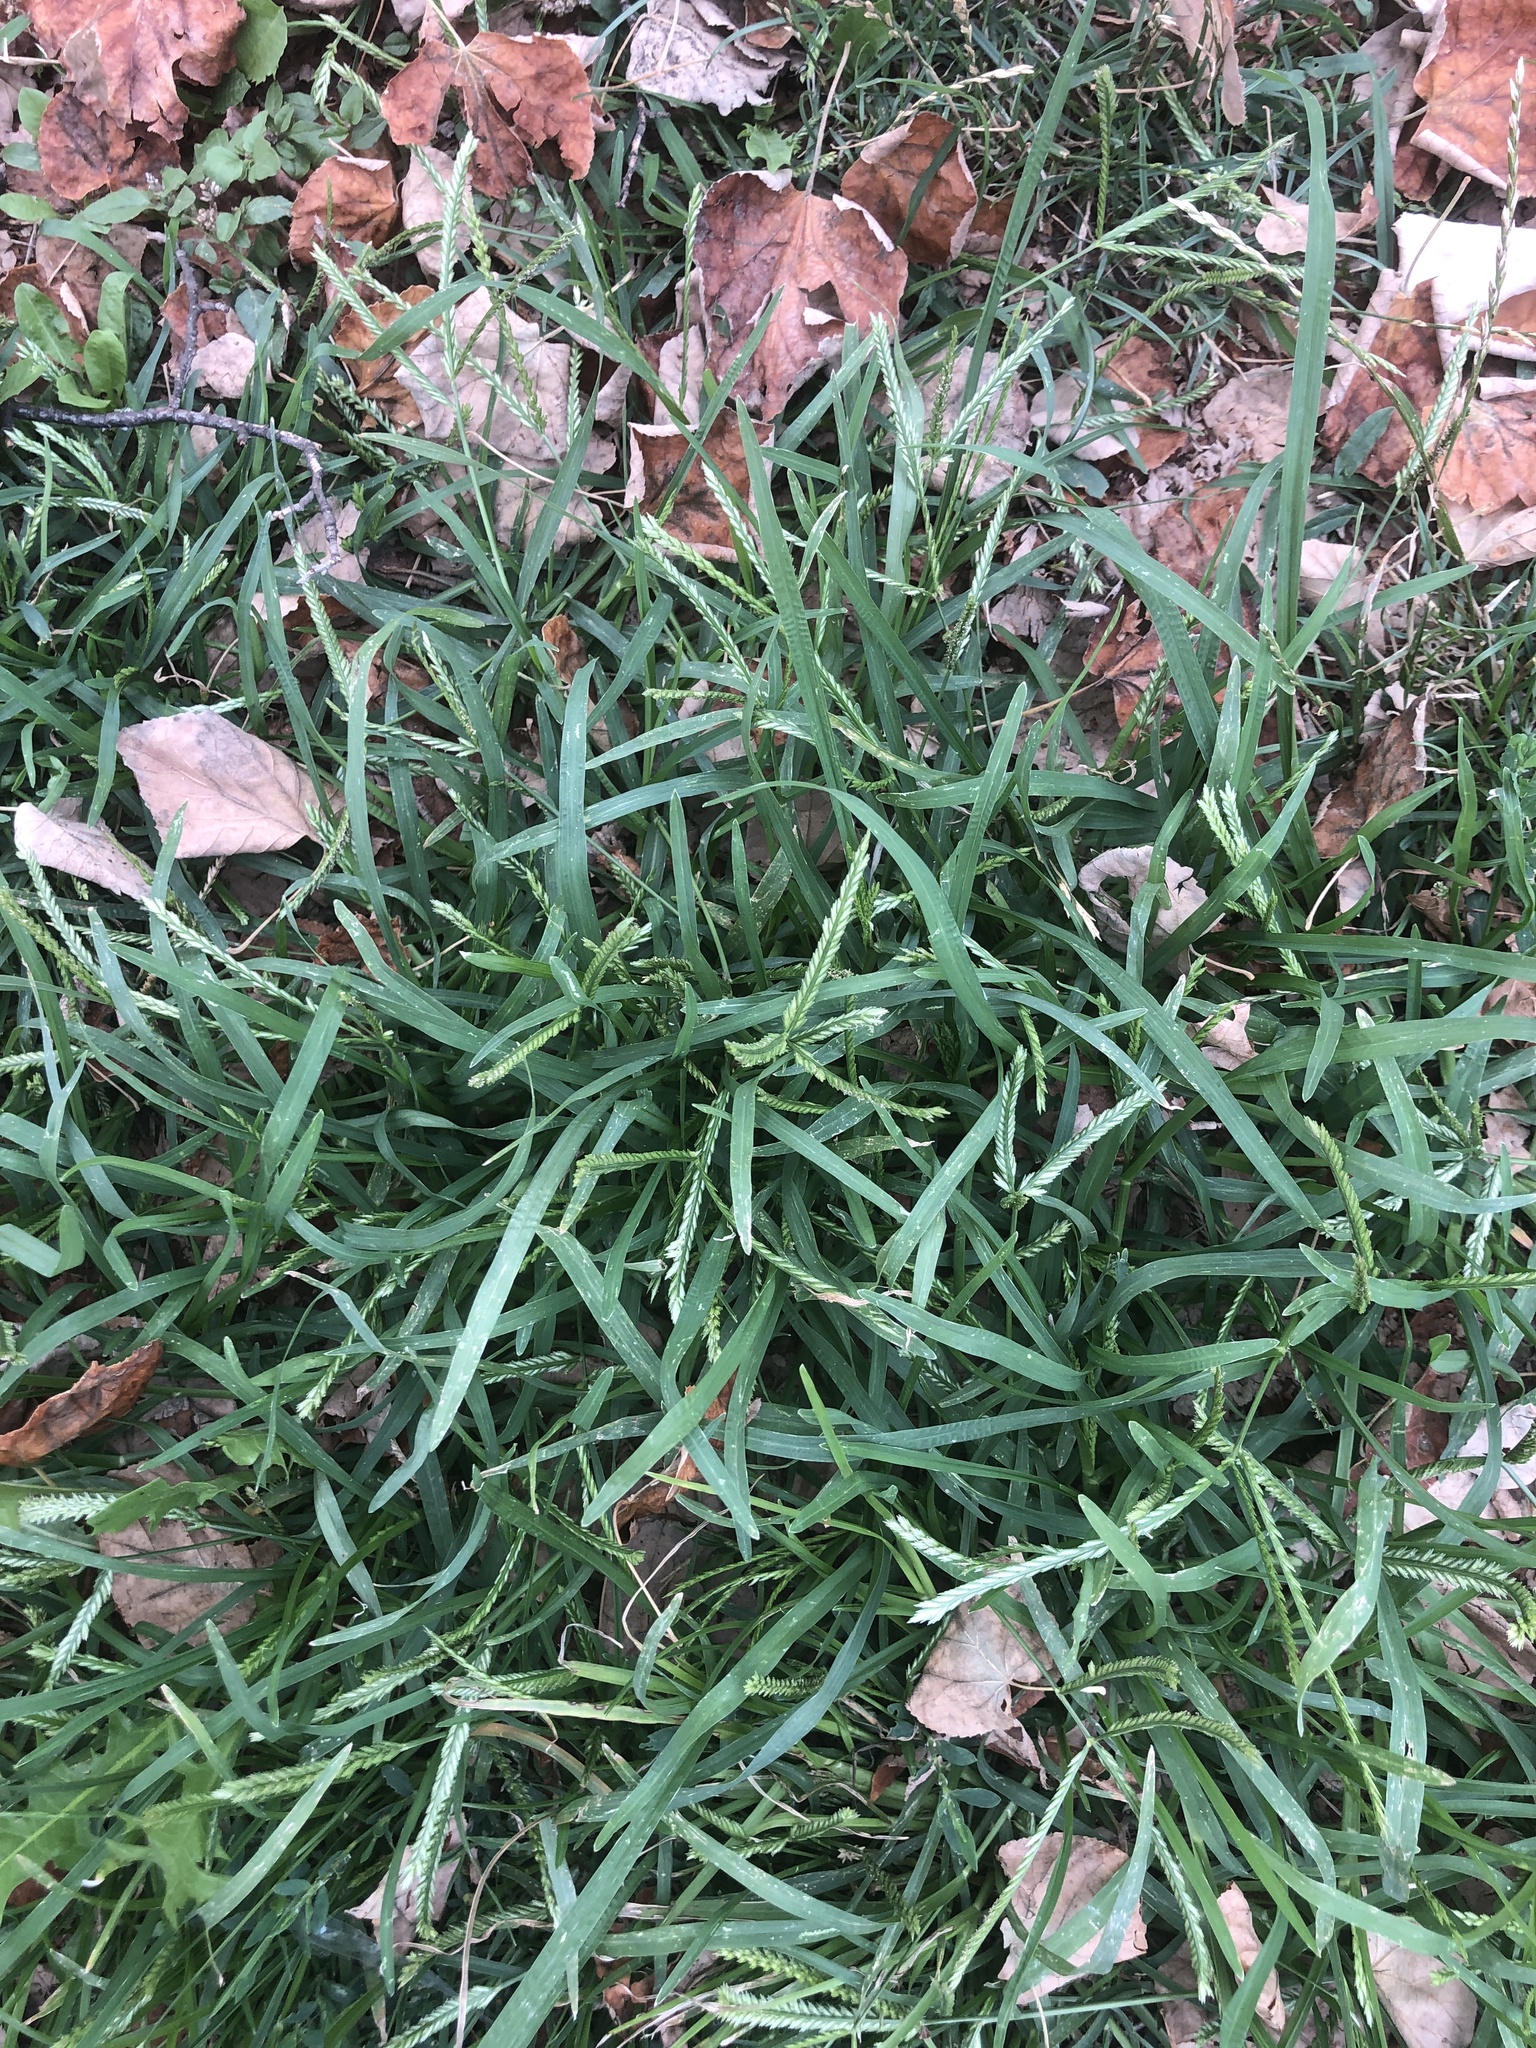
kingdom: Plantae
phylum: Tracheophyta
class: Liliopsida
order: Poales
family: Poaceae
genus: Eleusine
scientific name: Eleusine indica
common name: Yard-grass
